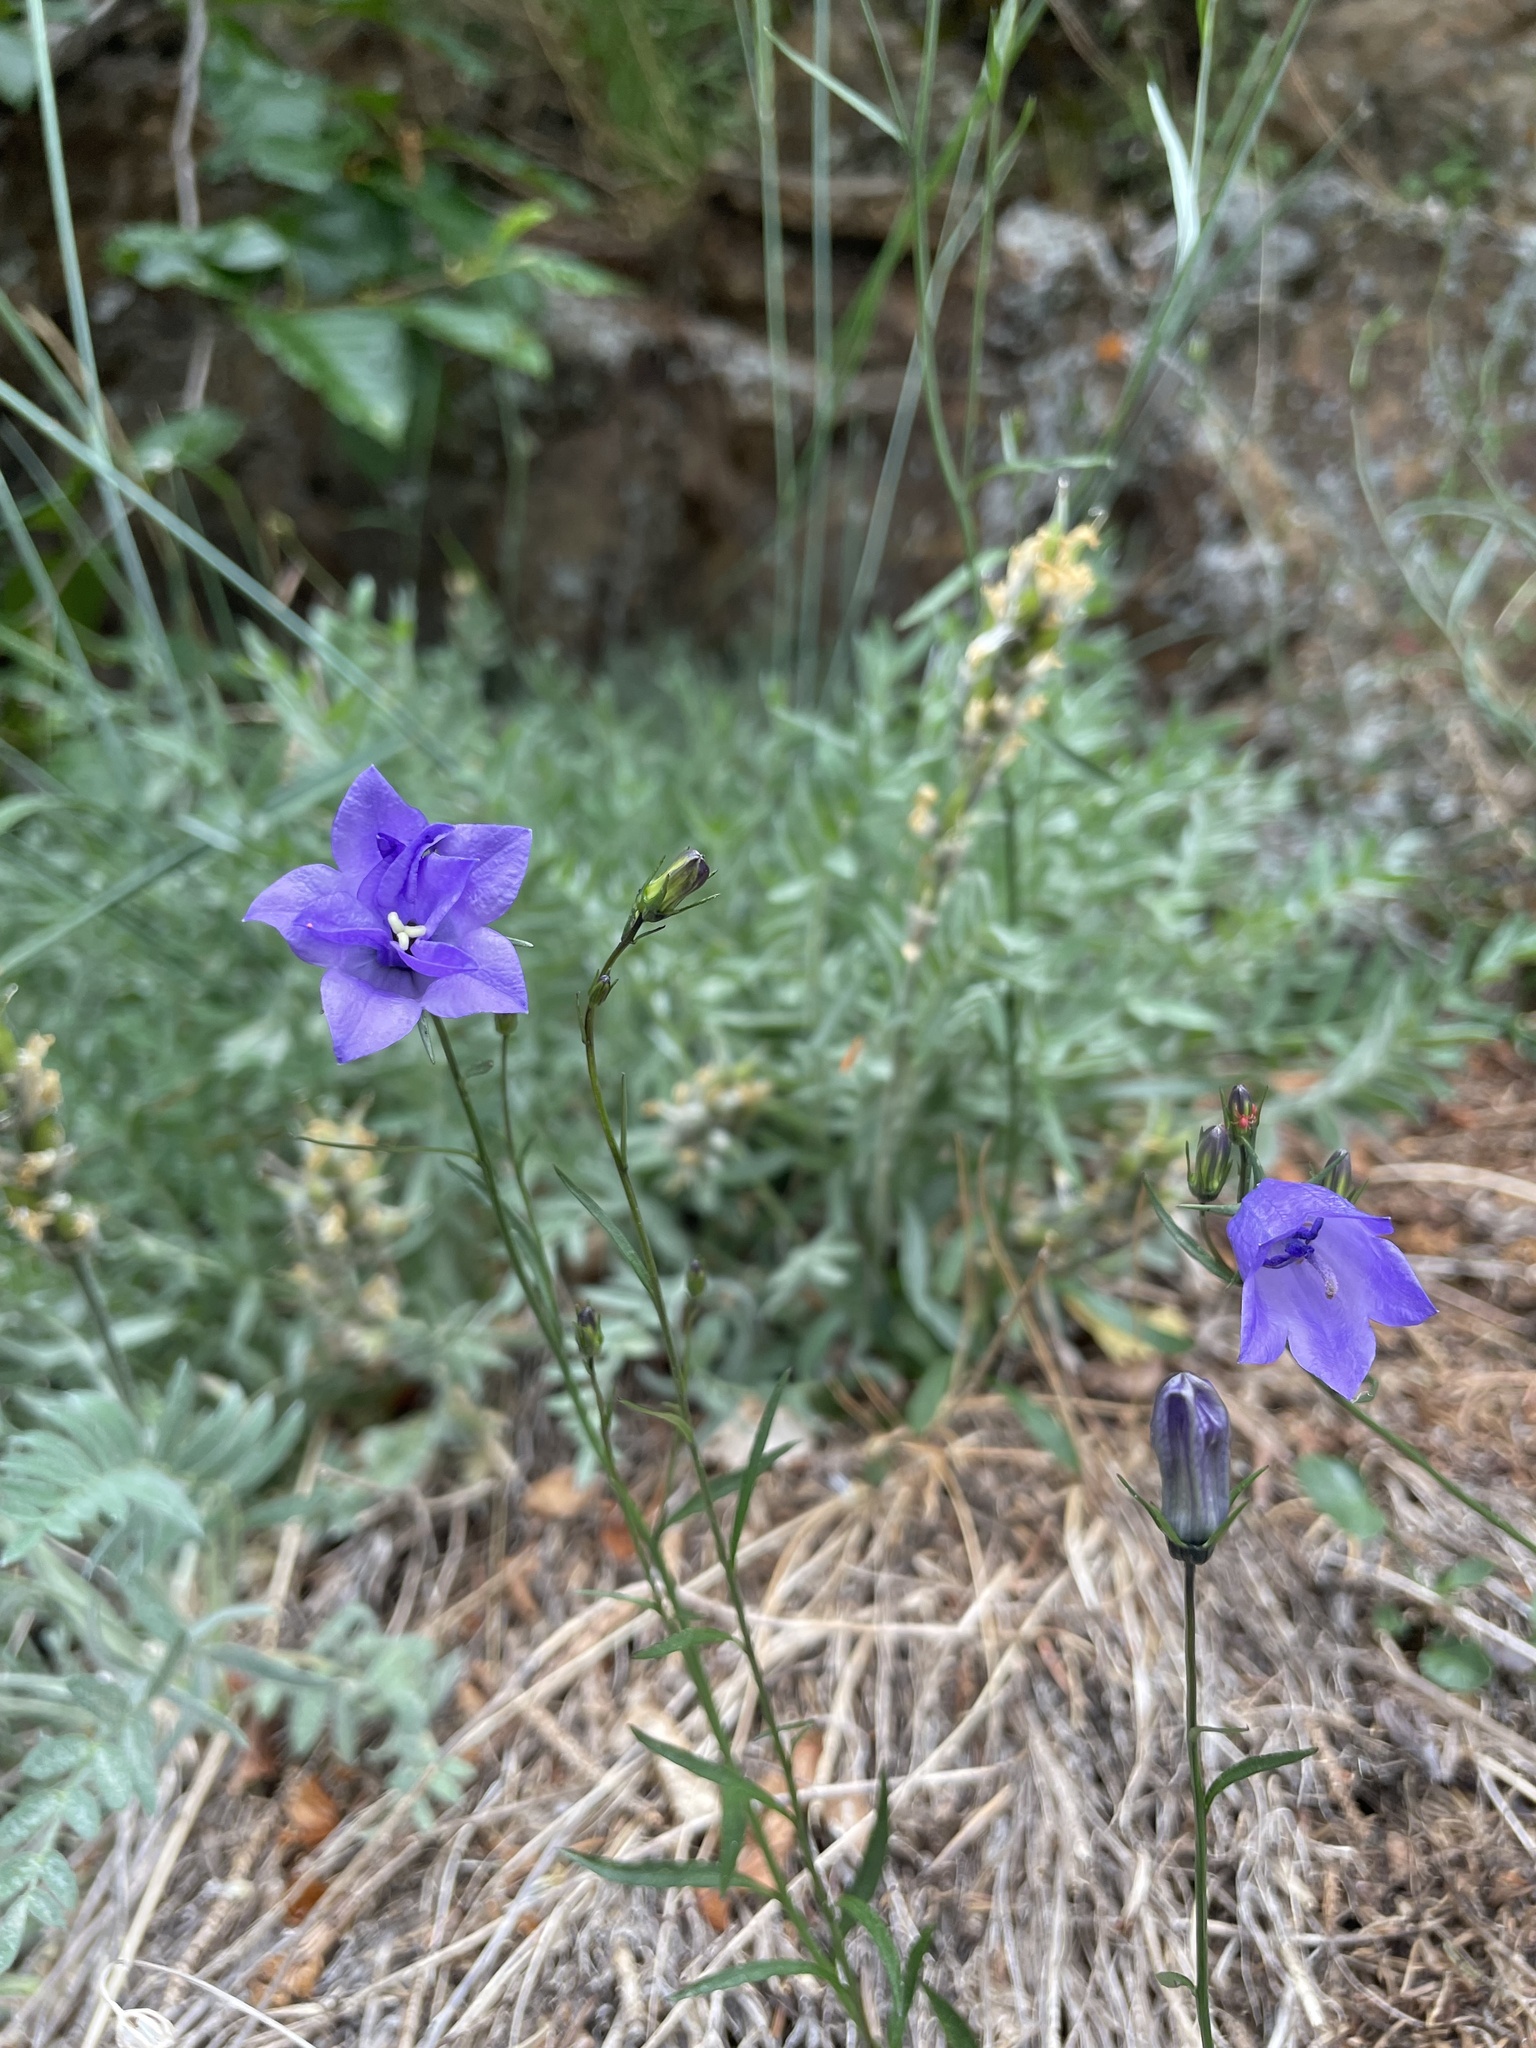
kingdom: Plantae
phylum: Tracheophyta
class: Magnoliopsida
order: Asterales
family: Campanulaceae
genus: Campanula
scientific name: Campanula alaskana
